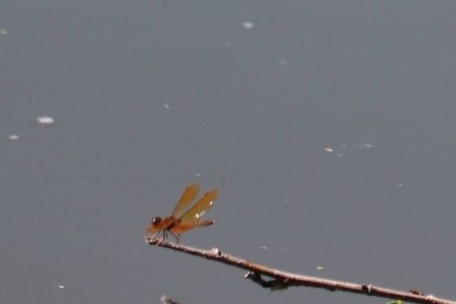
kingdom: Animalia
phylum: Arthropoda
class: Insecta
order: Odonata
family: Libellulidae
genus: Perithemis
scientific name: Perithemis tenera
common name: Eastern amberwing
